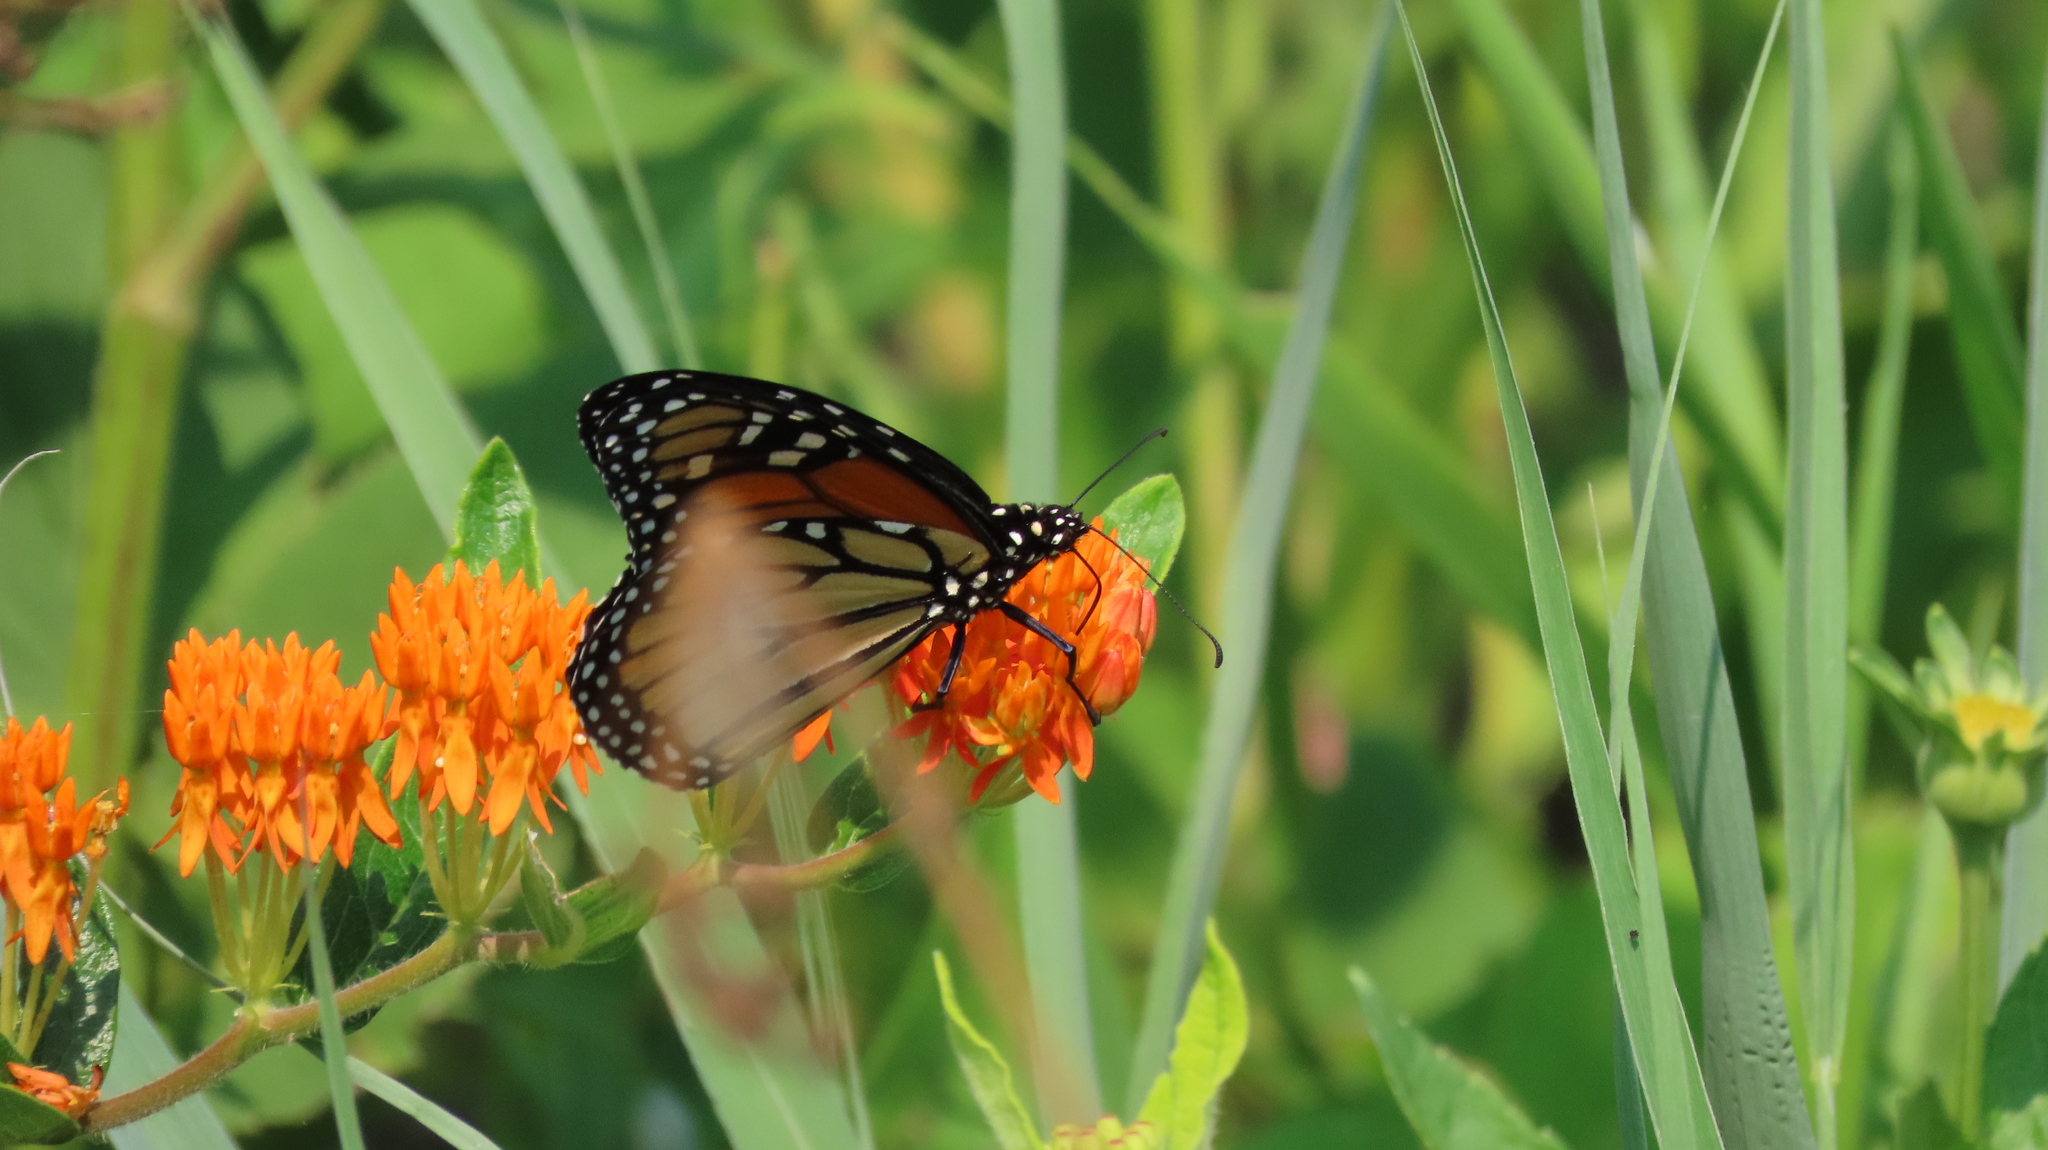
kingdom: Animalia
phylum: Arthropoda
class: Insecta
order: Lepidoptera
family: Nymphalidae
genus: Danaus
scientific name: Danaus plexippus
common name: Monarch
